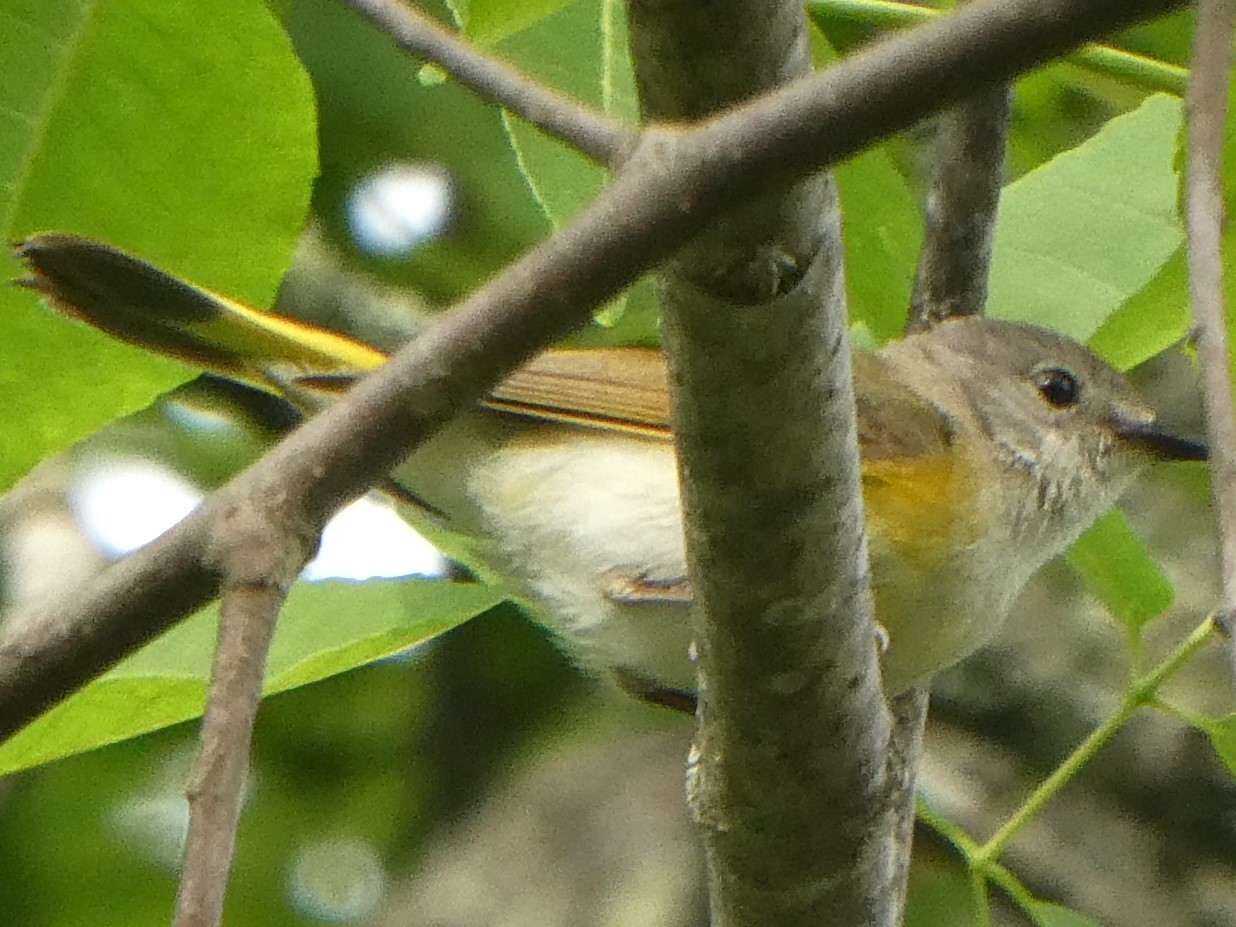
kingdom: Animalia
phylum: Chordata
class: Aves
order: Passeriformes
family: Parulidae
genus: Setophaga
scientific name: Setophaga ruticilla
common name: American redstart
